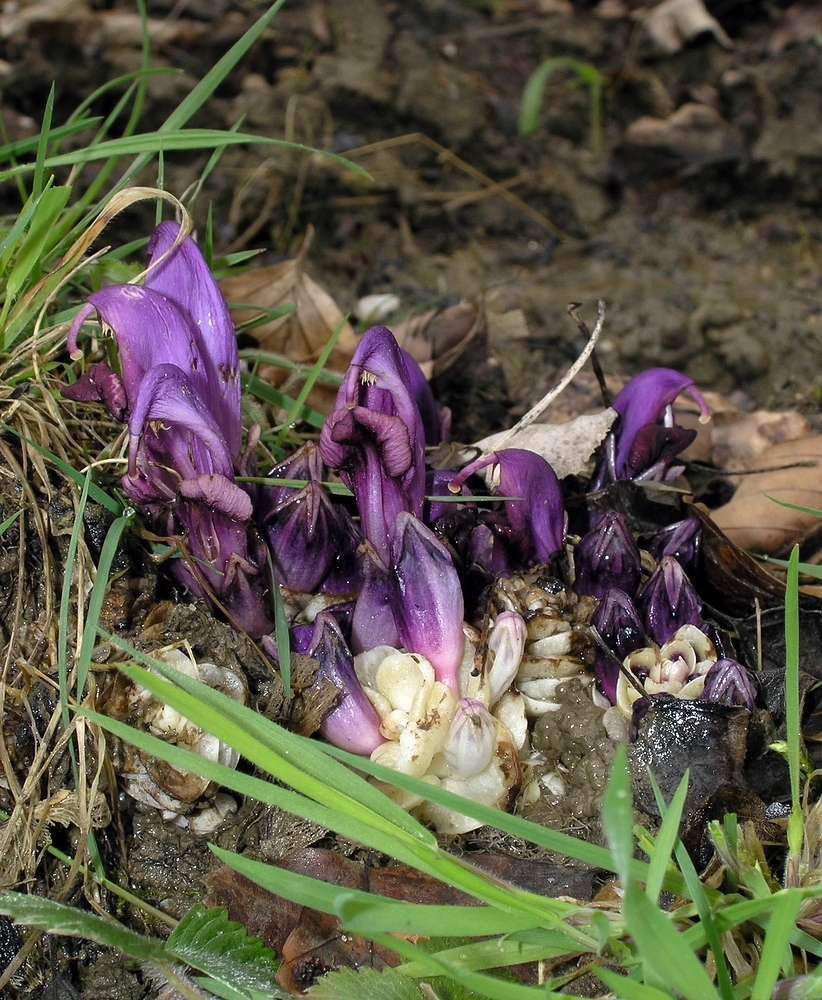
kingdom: Plantae
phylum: Tracheophyta
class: Magnoliopsida
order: Lamiales
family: Orobanchaceae
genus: Lathraea
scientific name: Lathraea clandestina
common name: Purple toothwort
